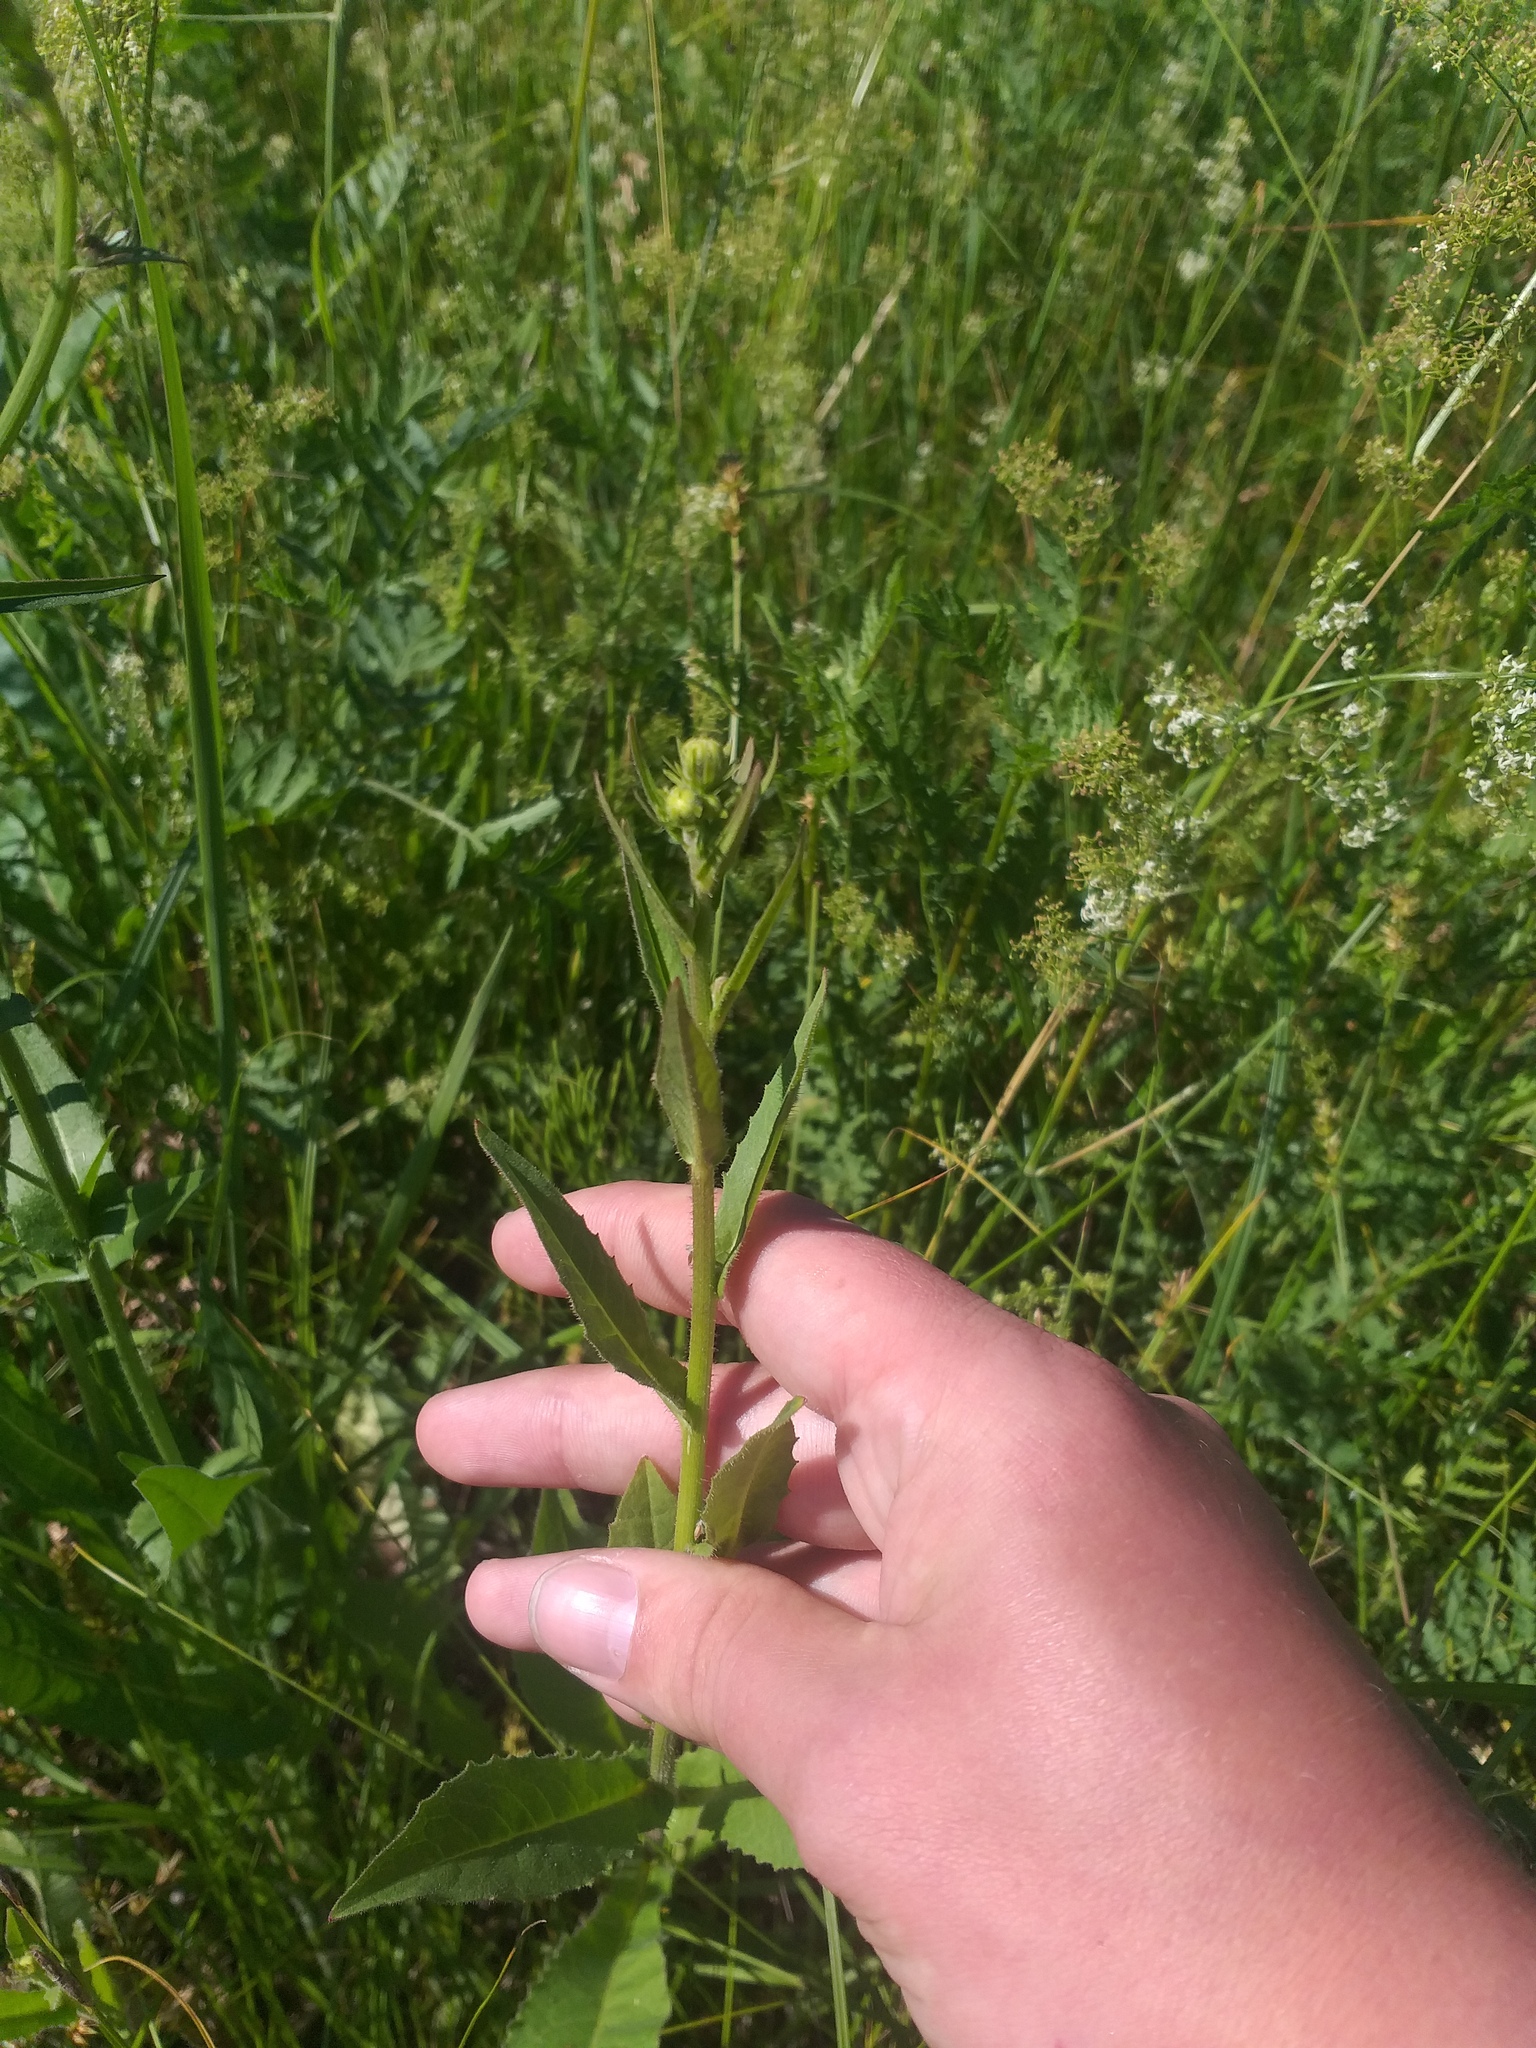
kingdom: Plantae
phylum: Tracheophyta
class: Magnoliopsida
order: Asterales
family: Asteraceae
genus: Picris
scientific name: Picris hieracioides
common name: Hawkweed oxtongue
